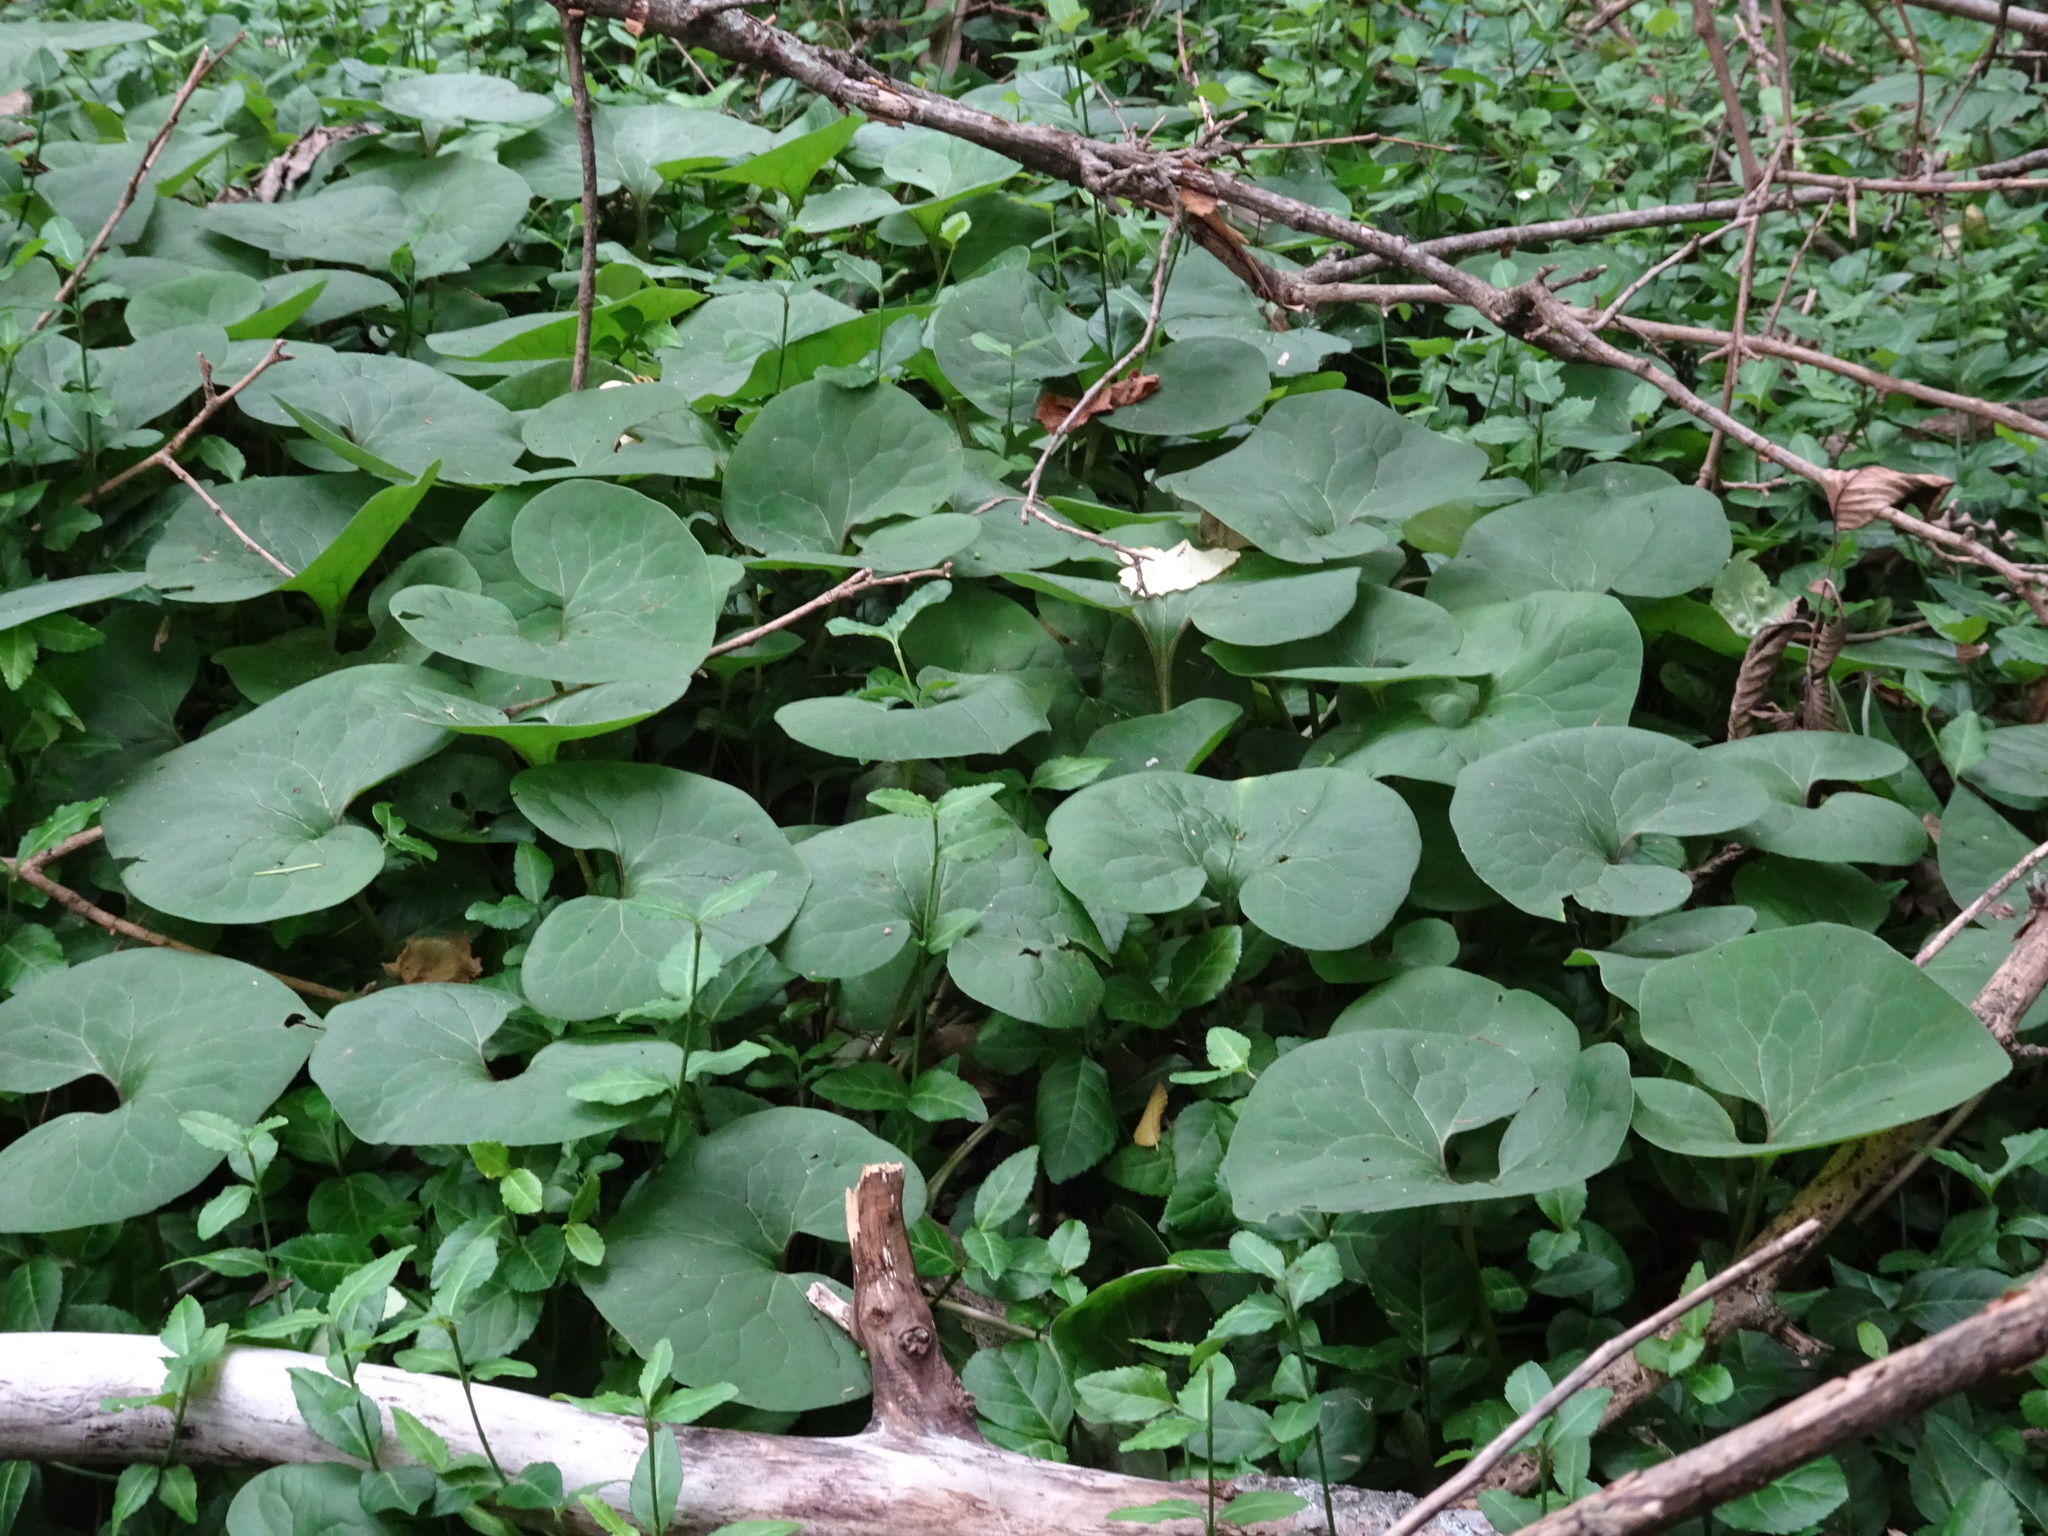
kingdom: Plantae
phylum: Tracheophyta
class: Magnoliopsida
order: Piperales
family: Aristolochiaceae
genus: Asarum
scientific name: Asarum canadense
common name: Wild ginger
